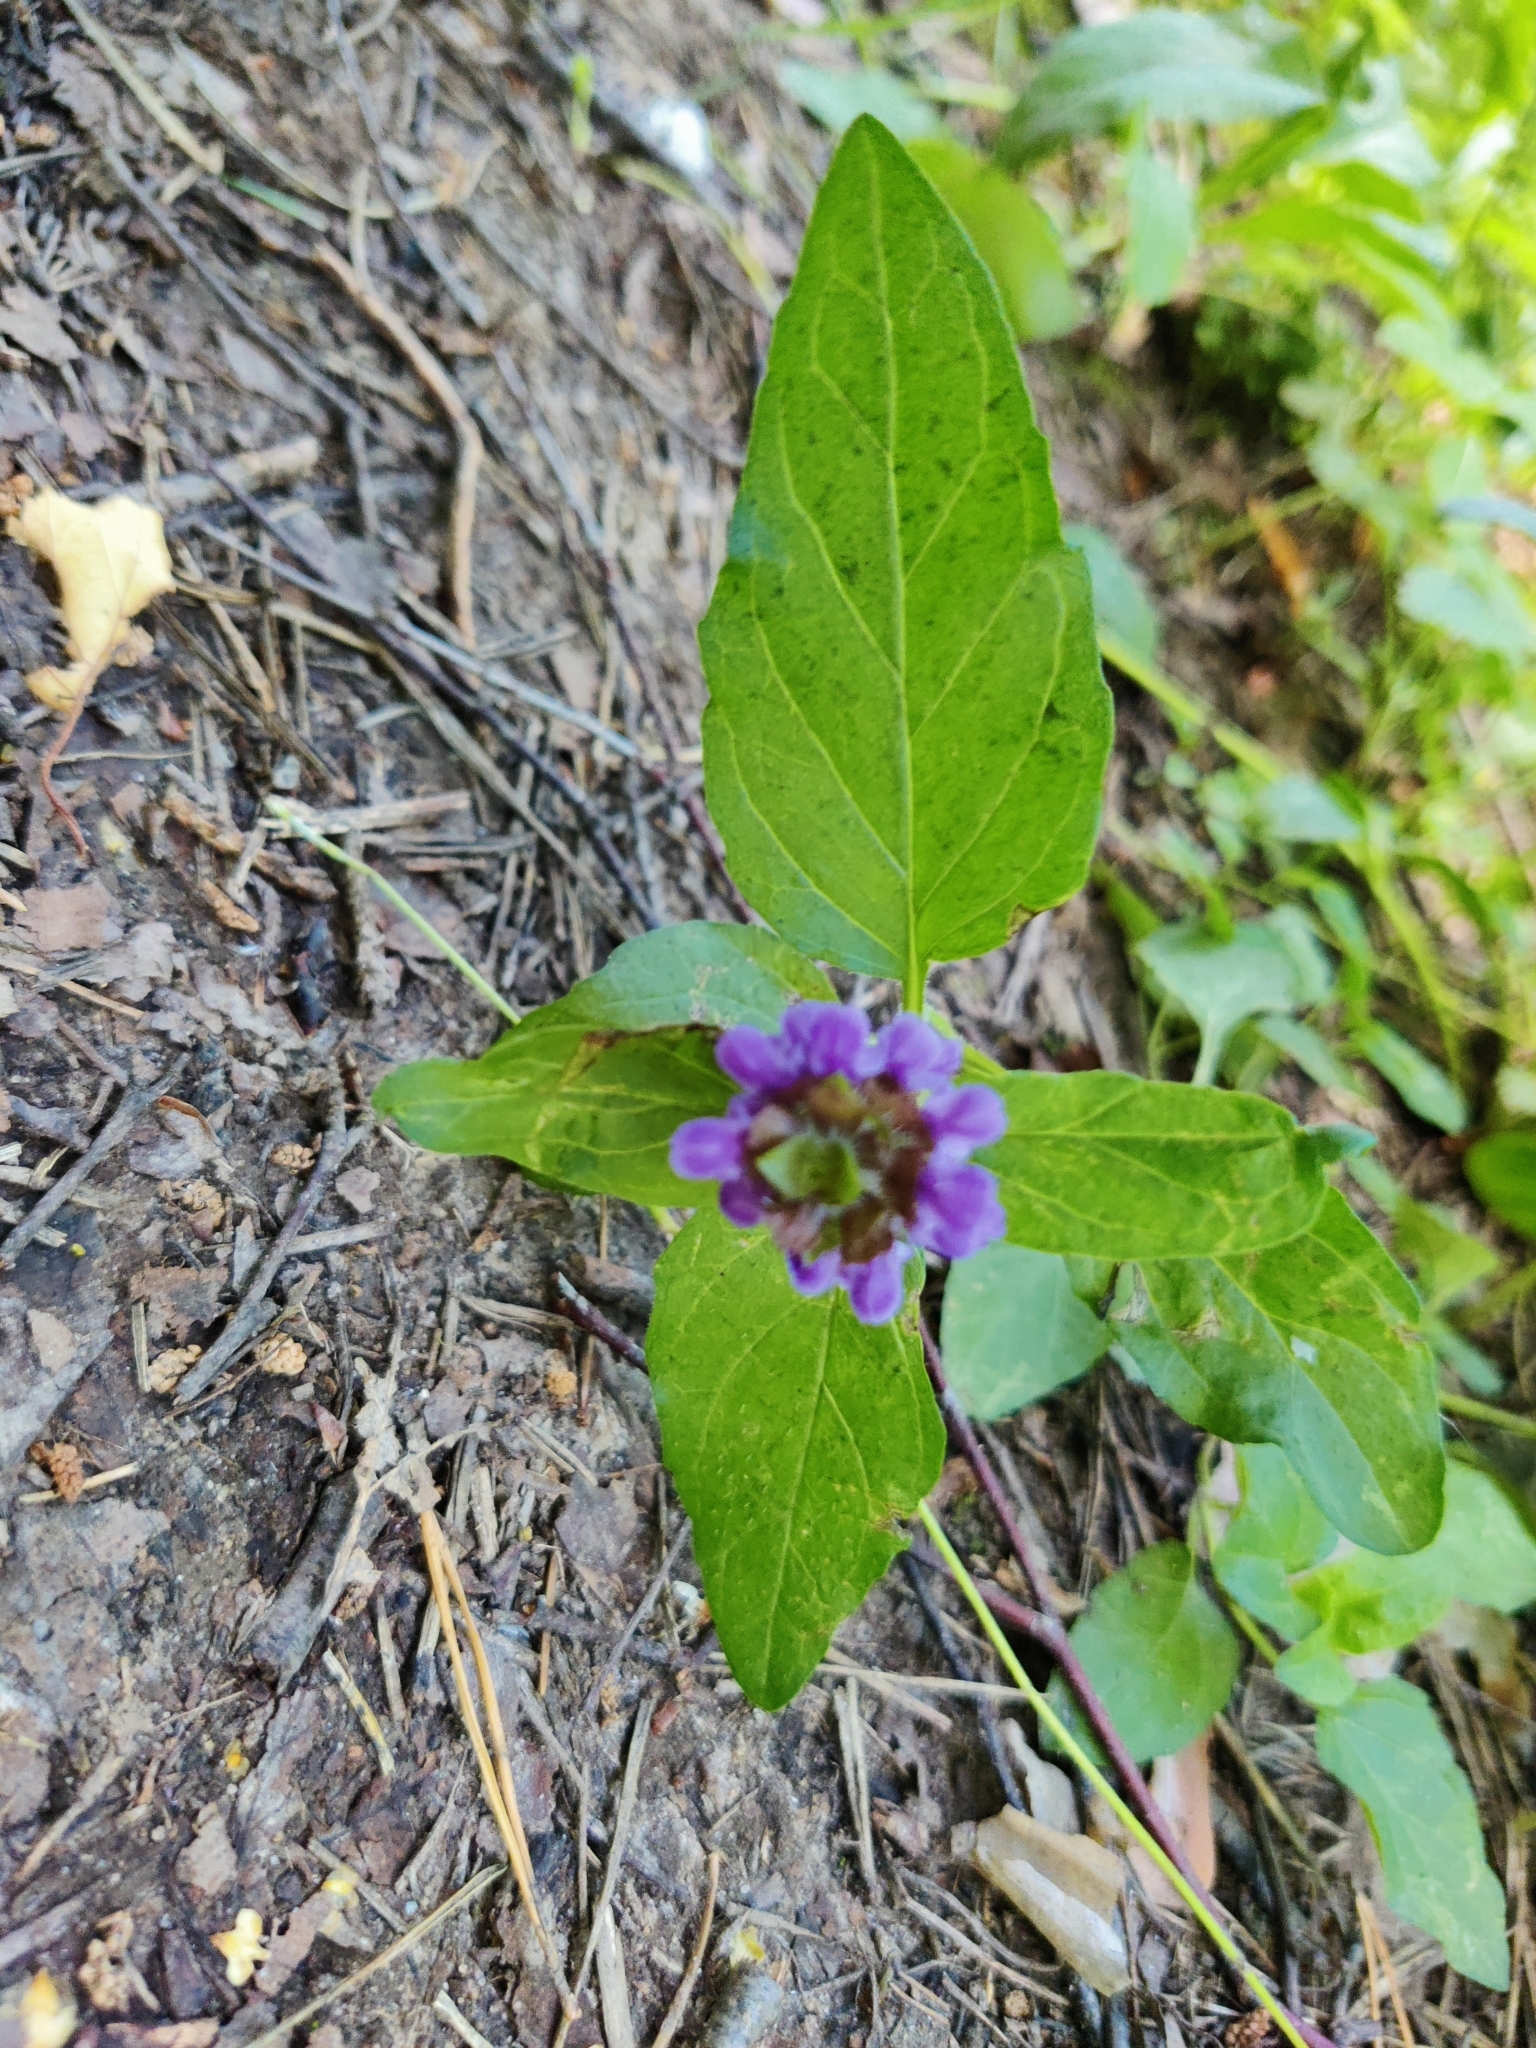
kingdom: Plantae
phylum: Tracheophyta
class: Magnoliopsida
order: Lamiales
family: Lamiaceae
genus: Prunella
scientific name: Prunella vulgaris
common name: Heal-all
